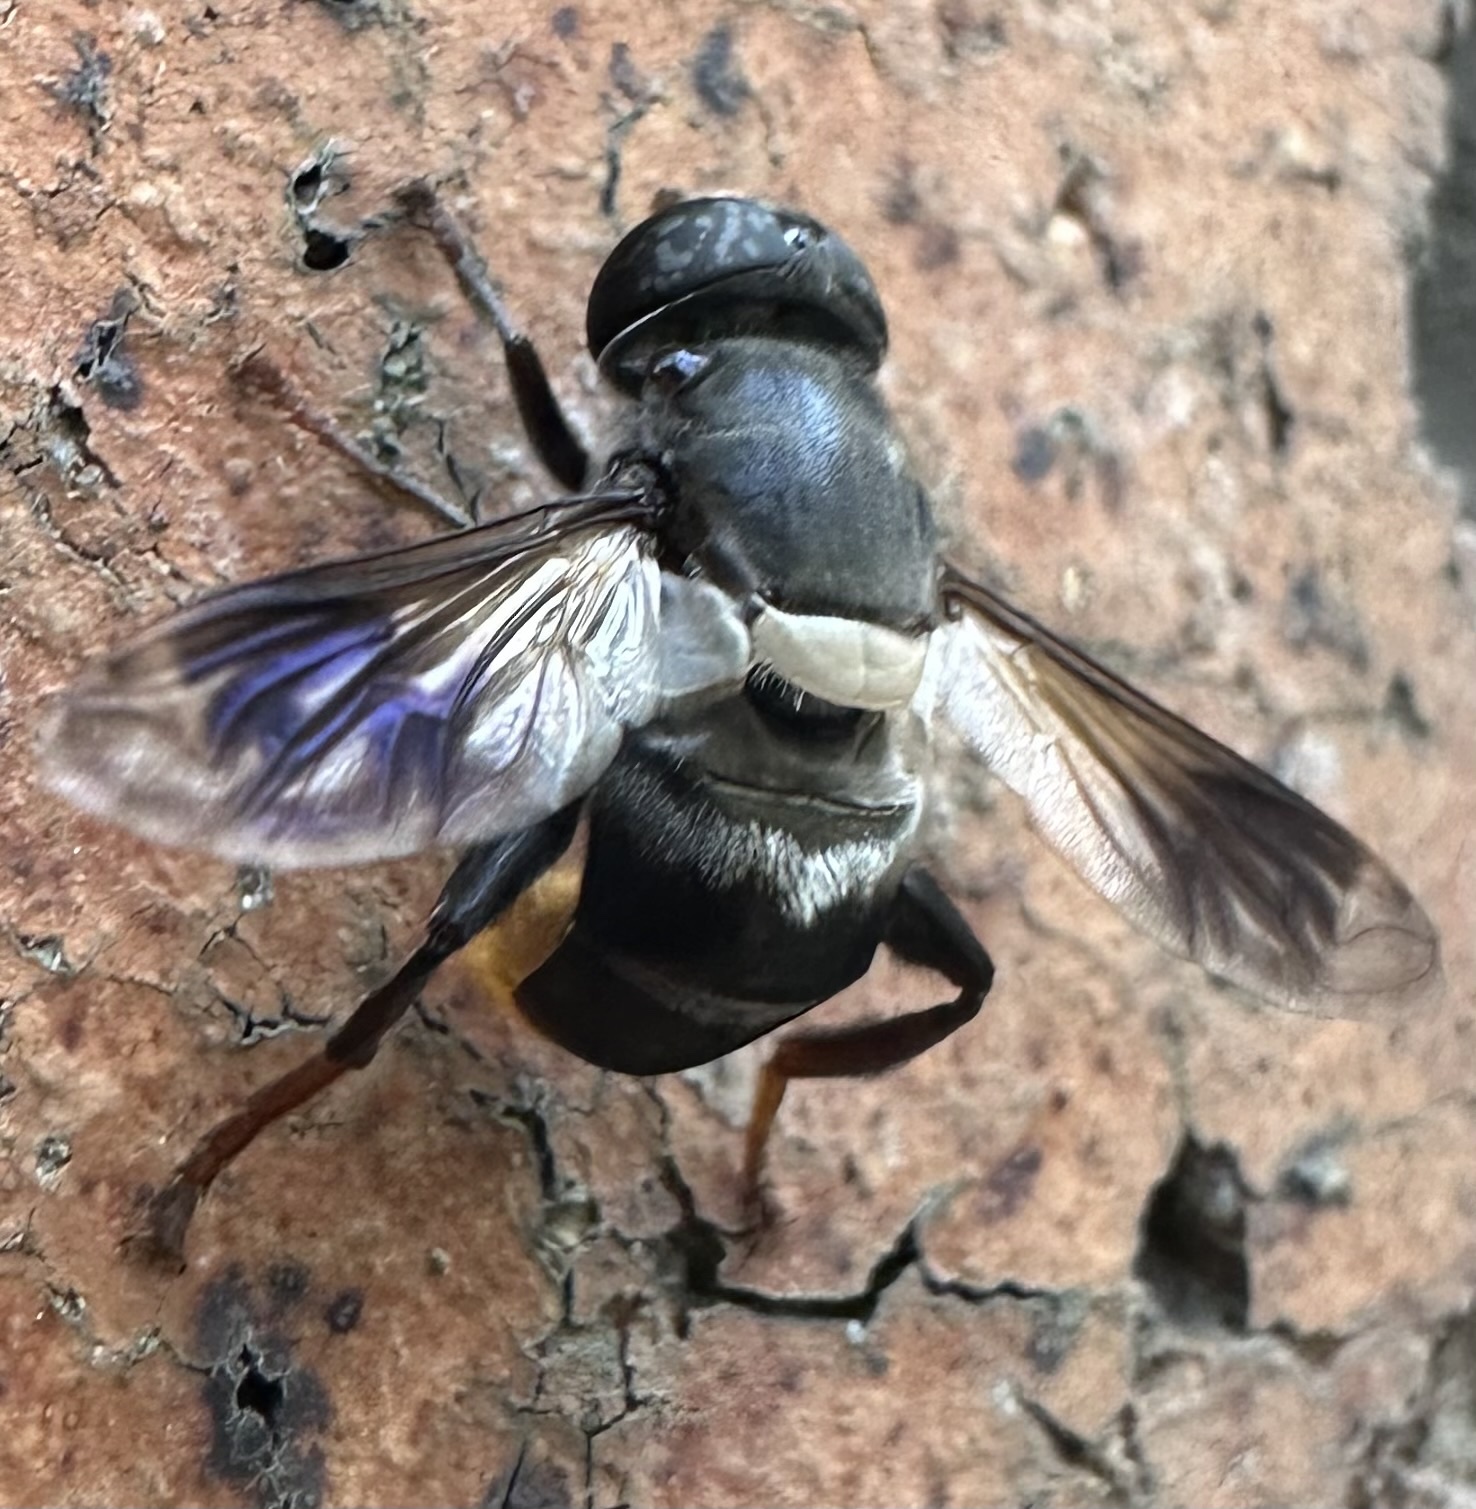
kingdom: Animalia
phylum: Arthropoda
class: Insecta
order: Diptera
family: Syrphidae
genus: Senaspis
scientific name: Senaspis haemorrhoa
